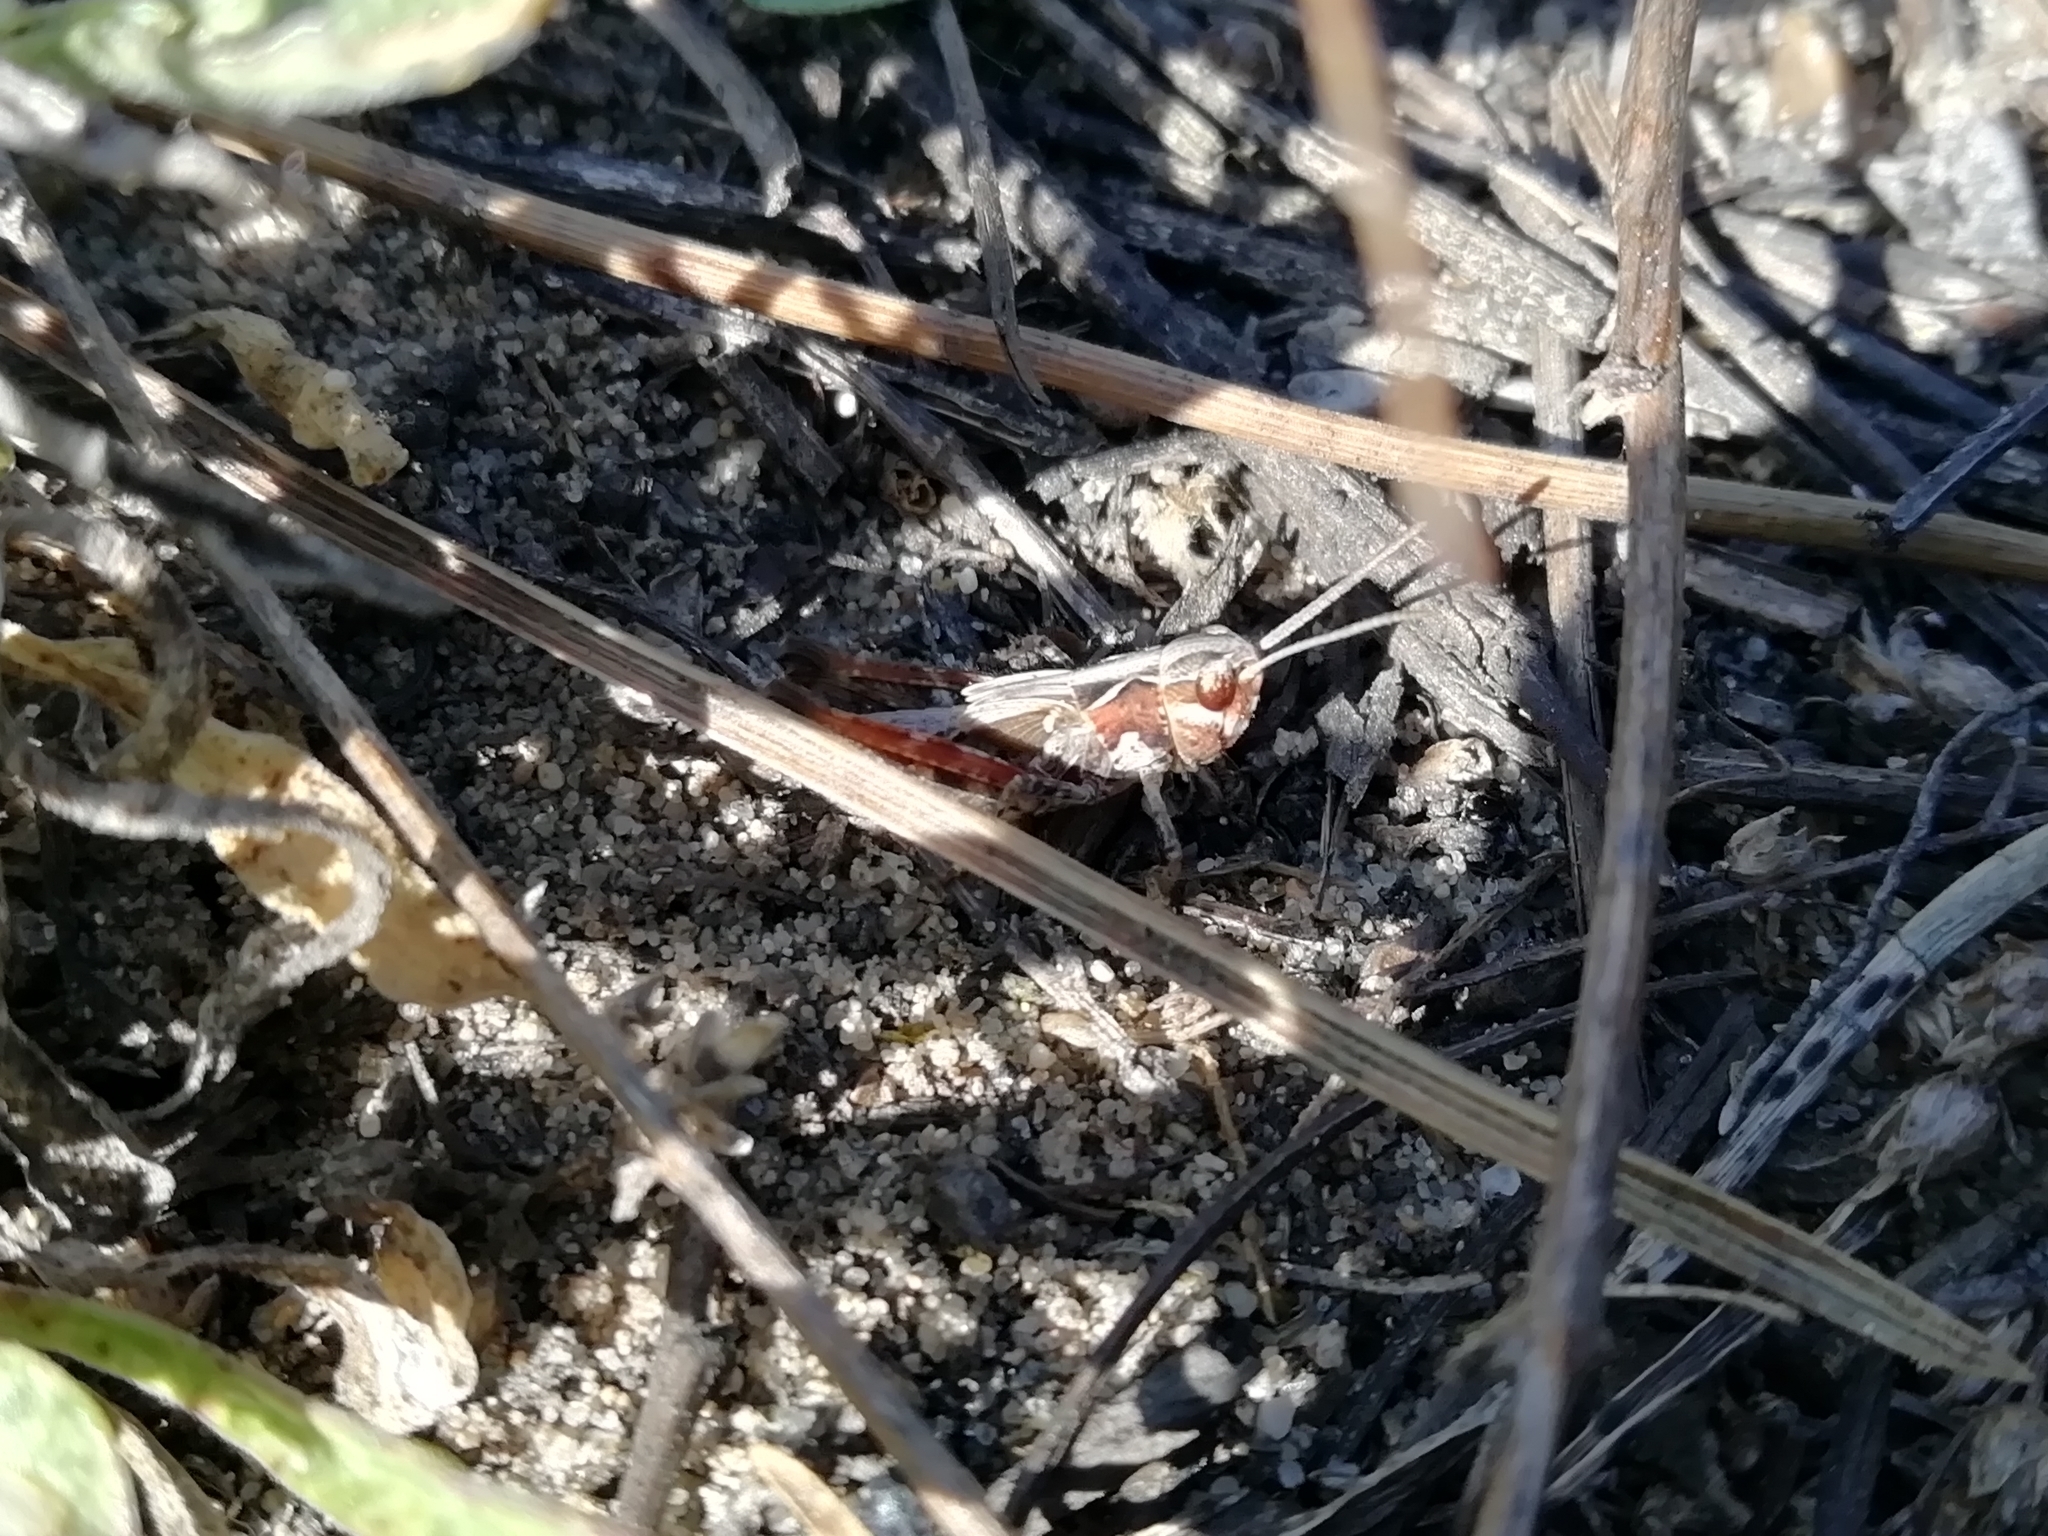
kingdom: Animalia
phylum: Arthropoda
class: Insecta
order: Orthoptera
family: Acrididae
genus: Myrmeleotettix
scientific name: Myrmeleotettix maculatus
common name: Mottled grasshopper
